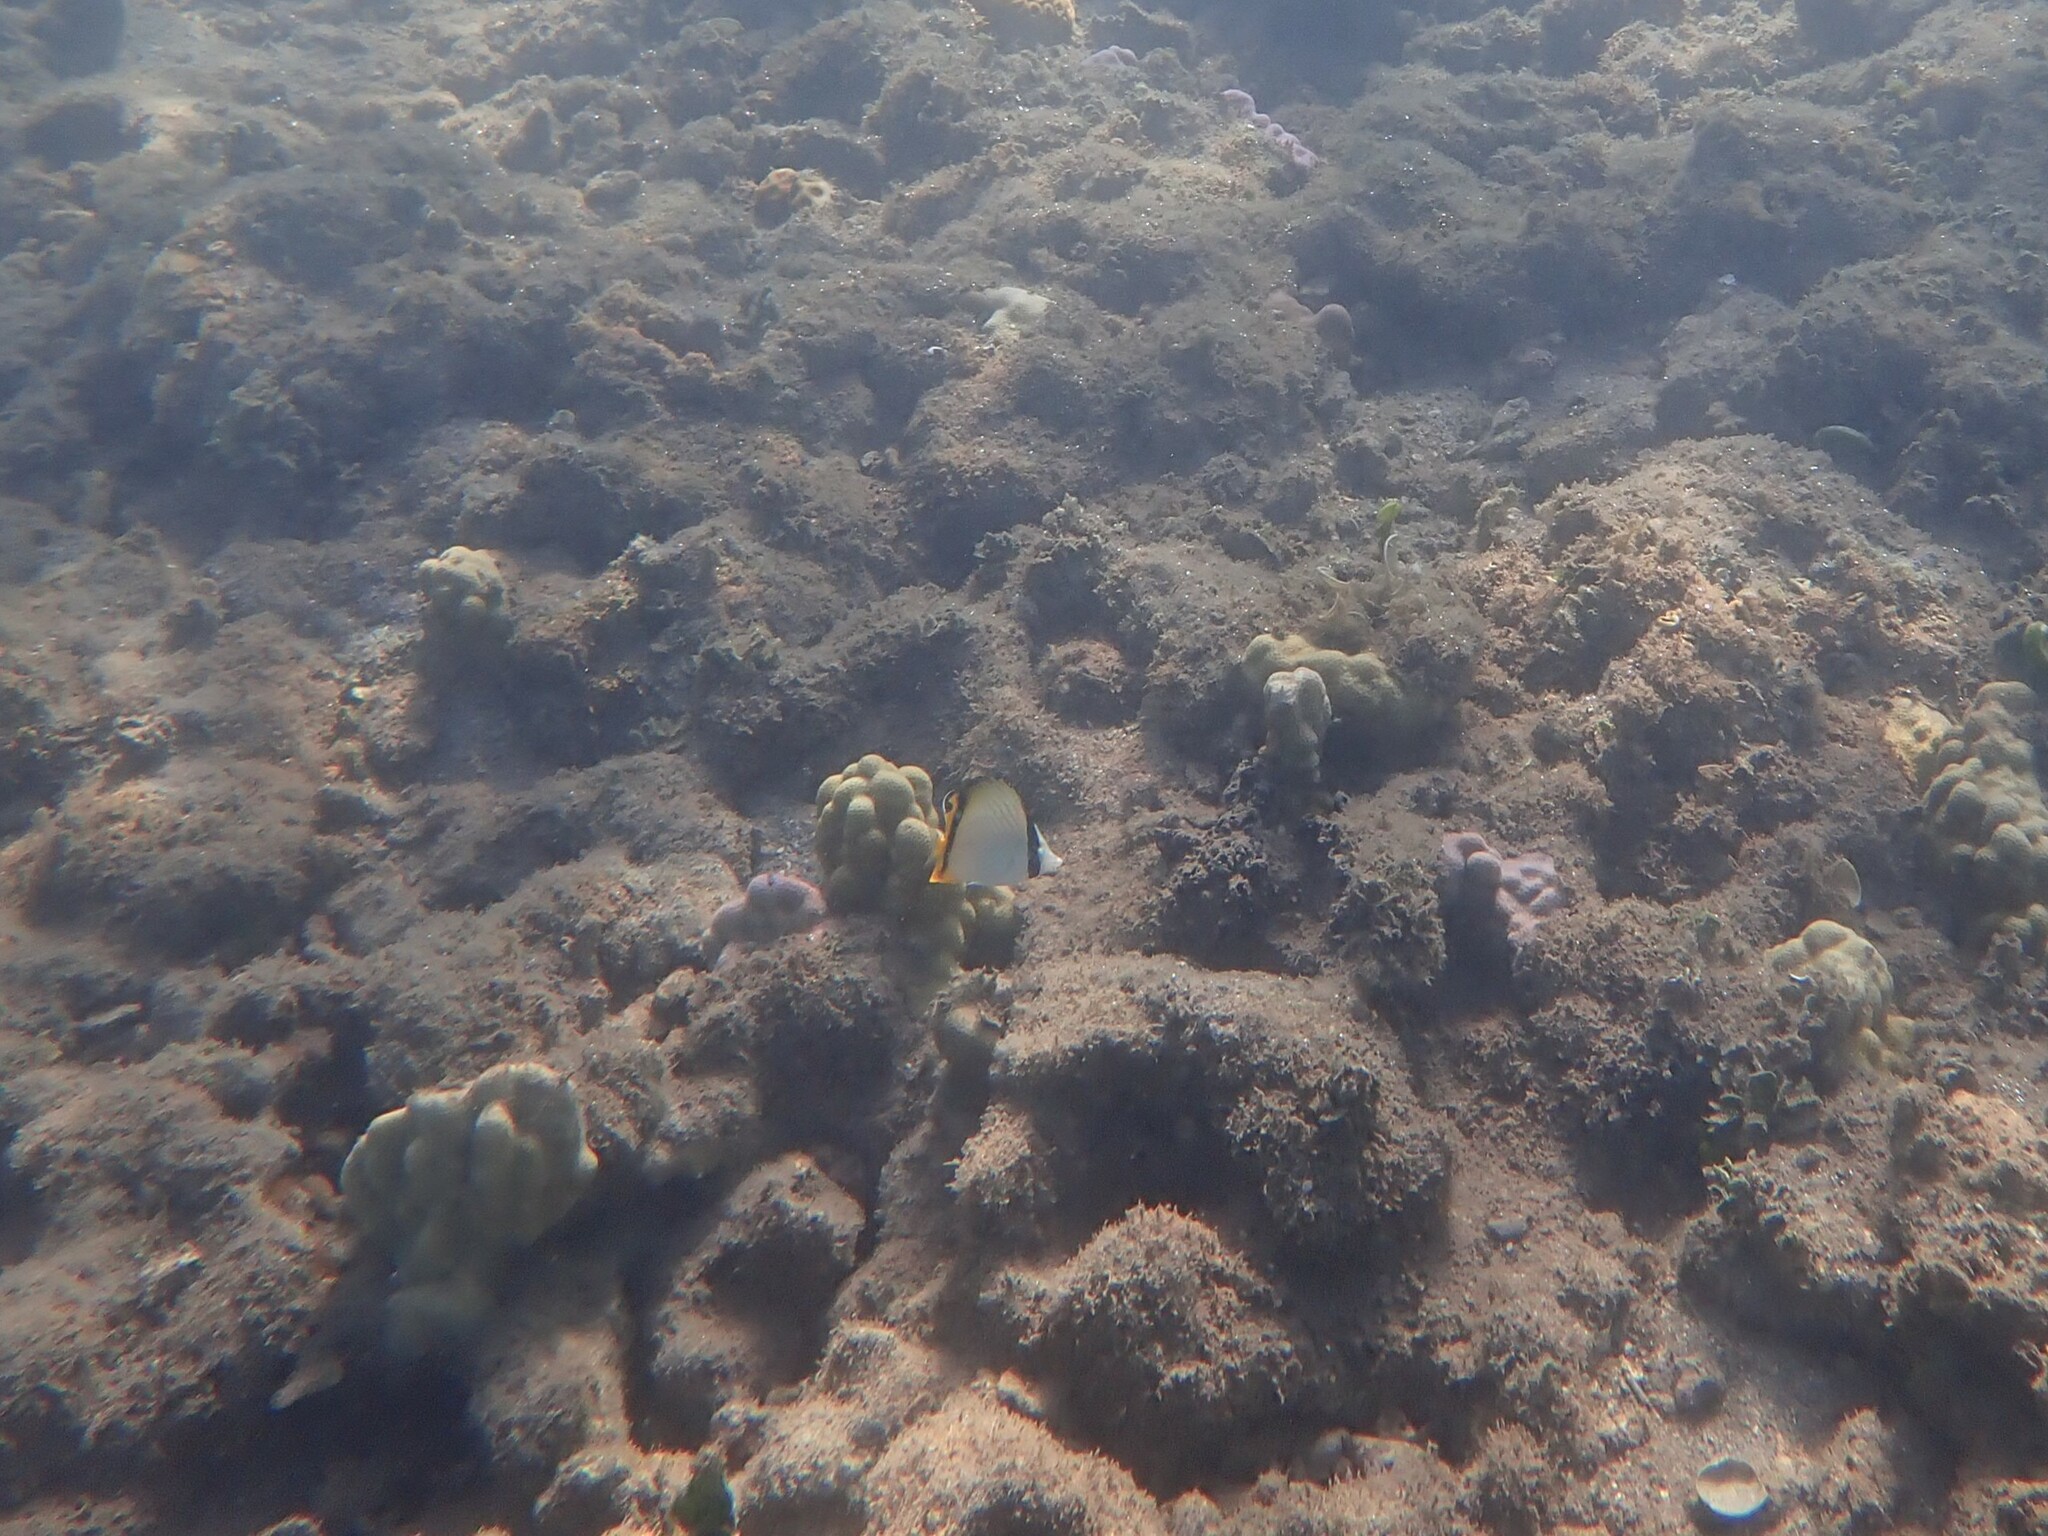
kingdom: Animalia
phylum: Chordata
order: Perciformes
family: Chaetodontidae
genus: Chaetodon
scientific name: Chaetodon vagabundus
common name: Vagabond butterflyfish
